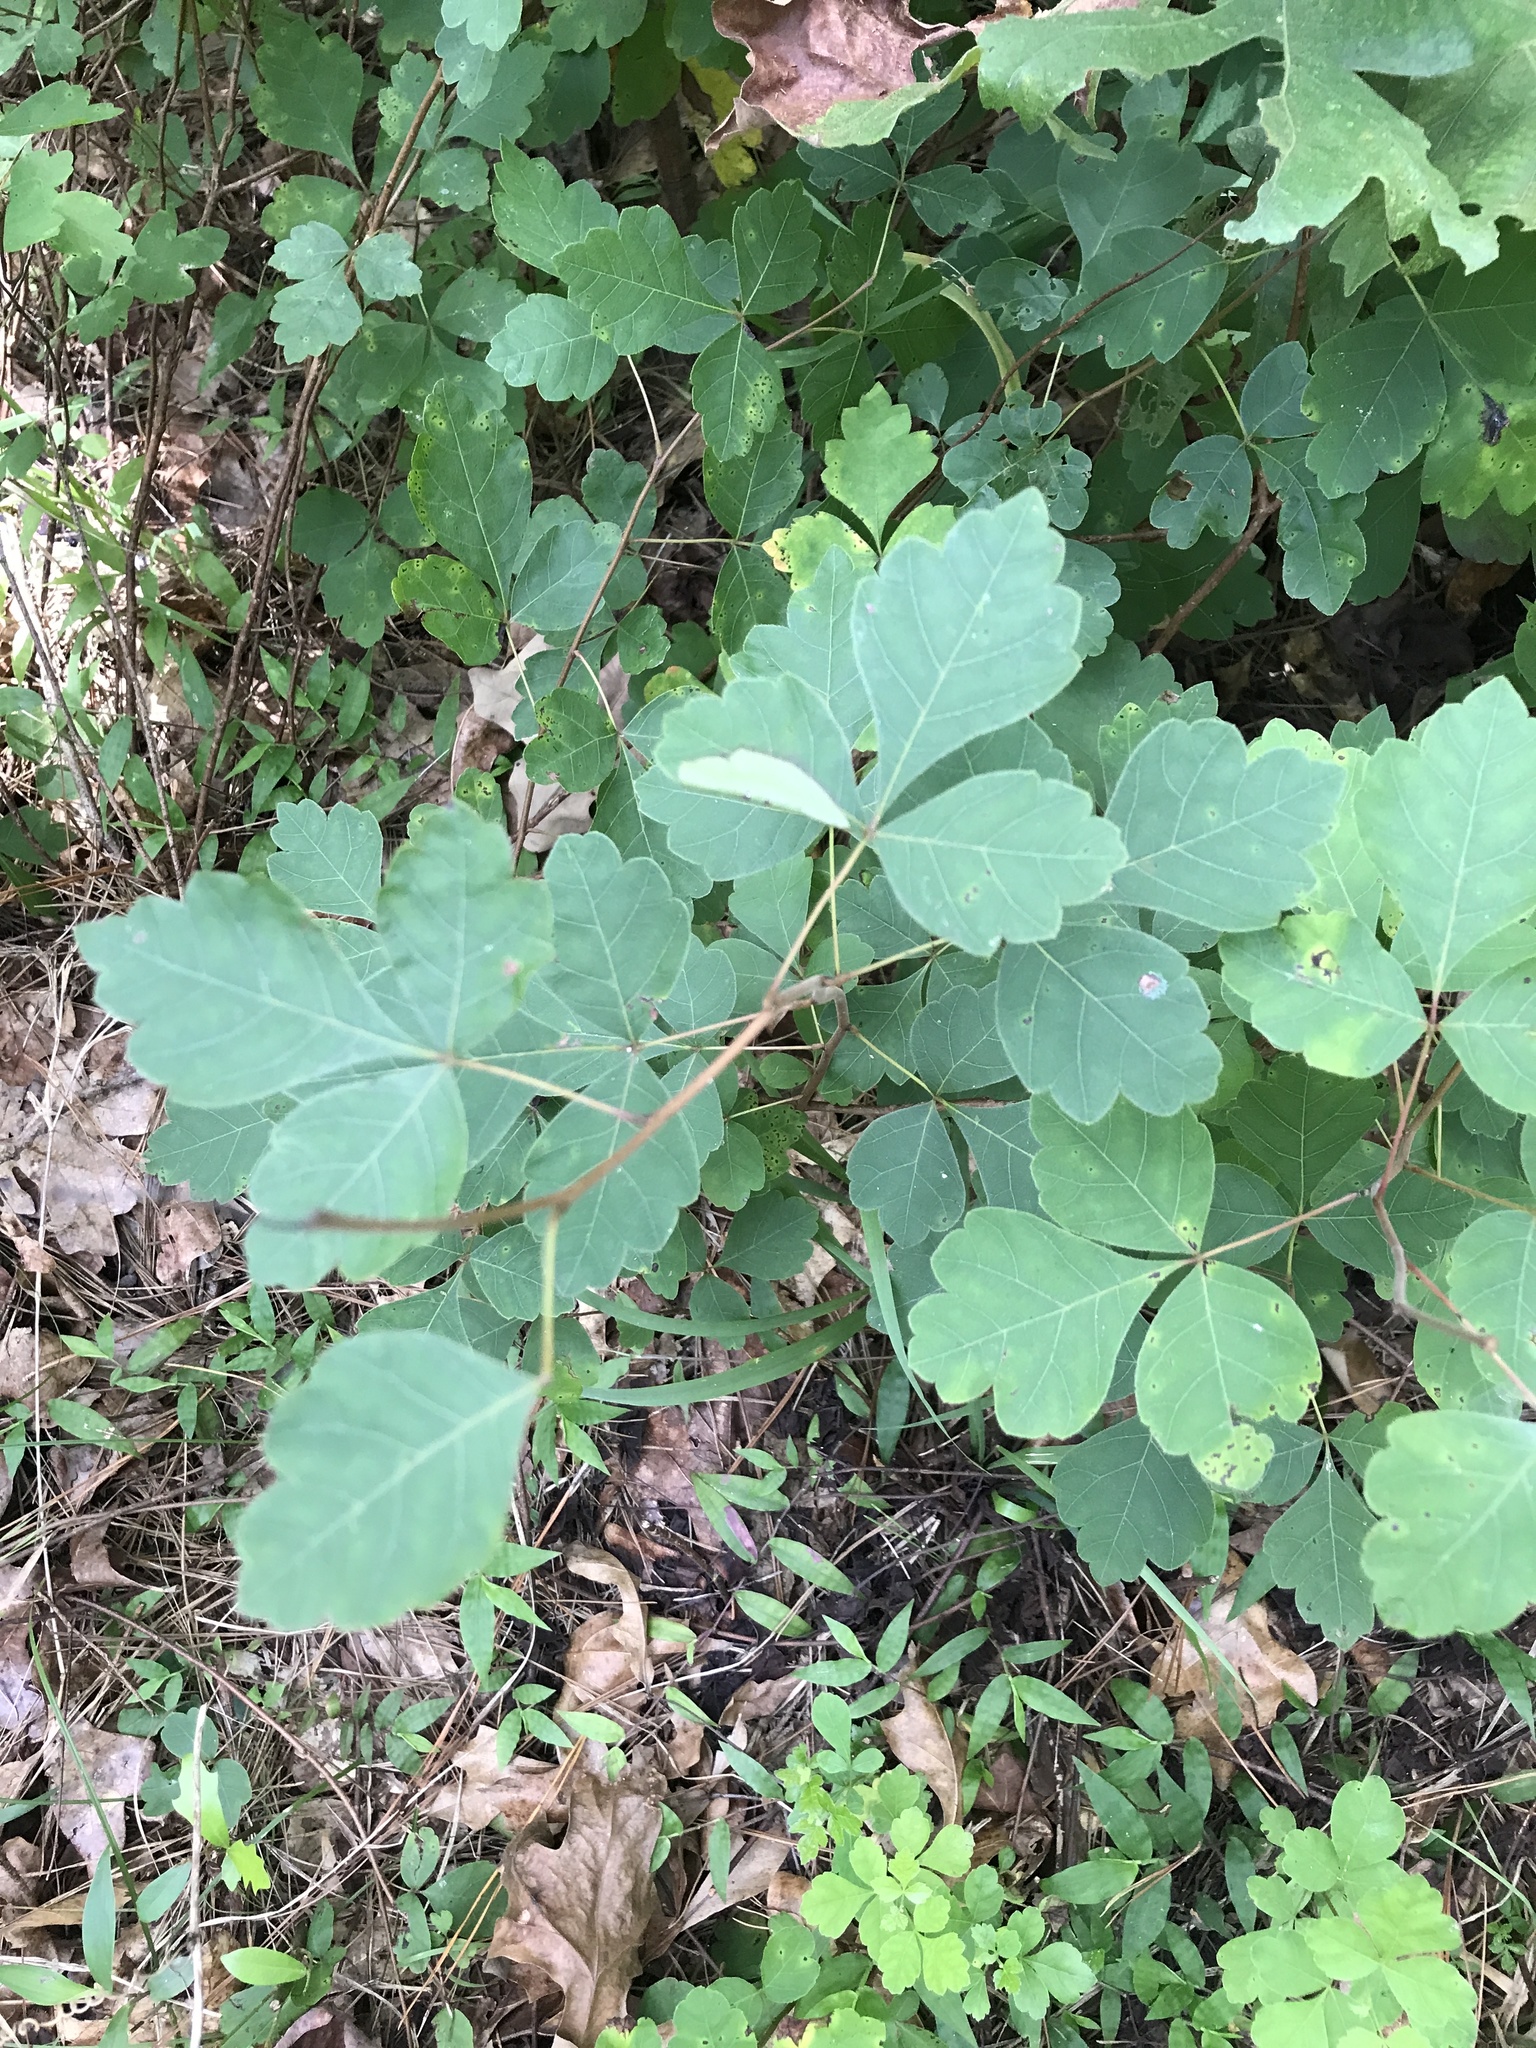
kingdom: Plantae
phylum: Tracheophyta
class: Magnoliopsida
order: Sapindales
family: Anacardiaceae
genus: Rhus
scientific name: Rhus aromatica
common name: Aromatic sumac
